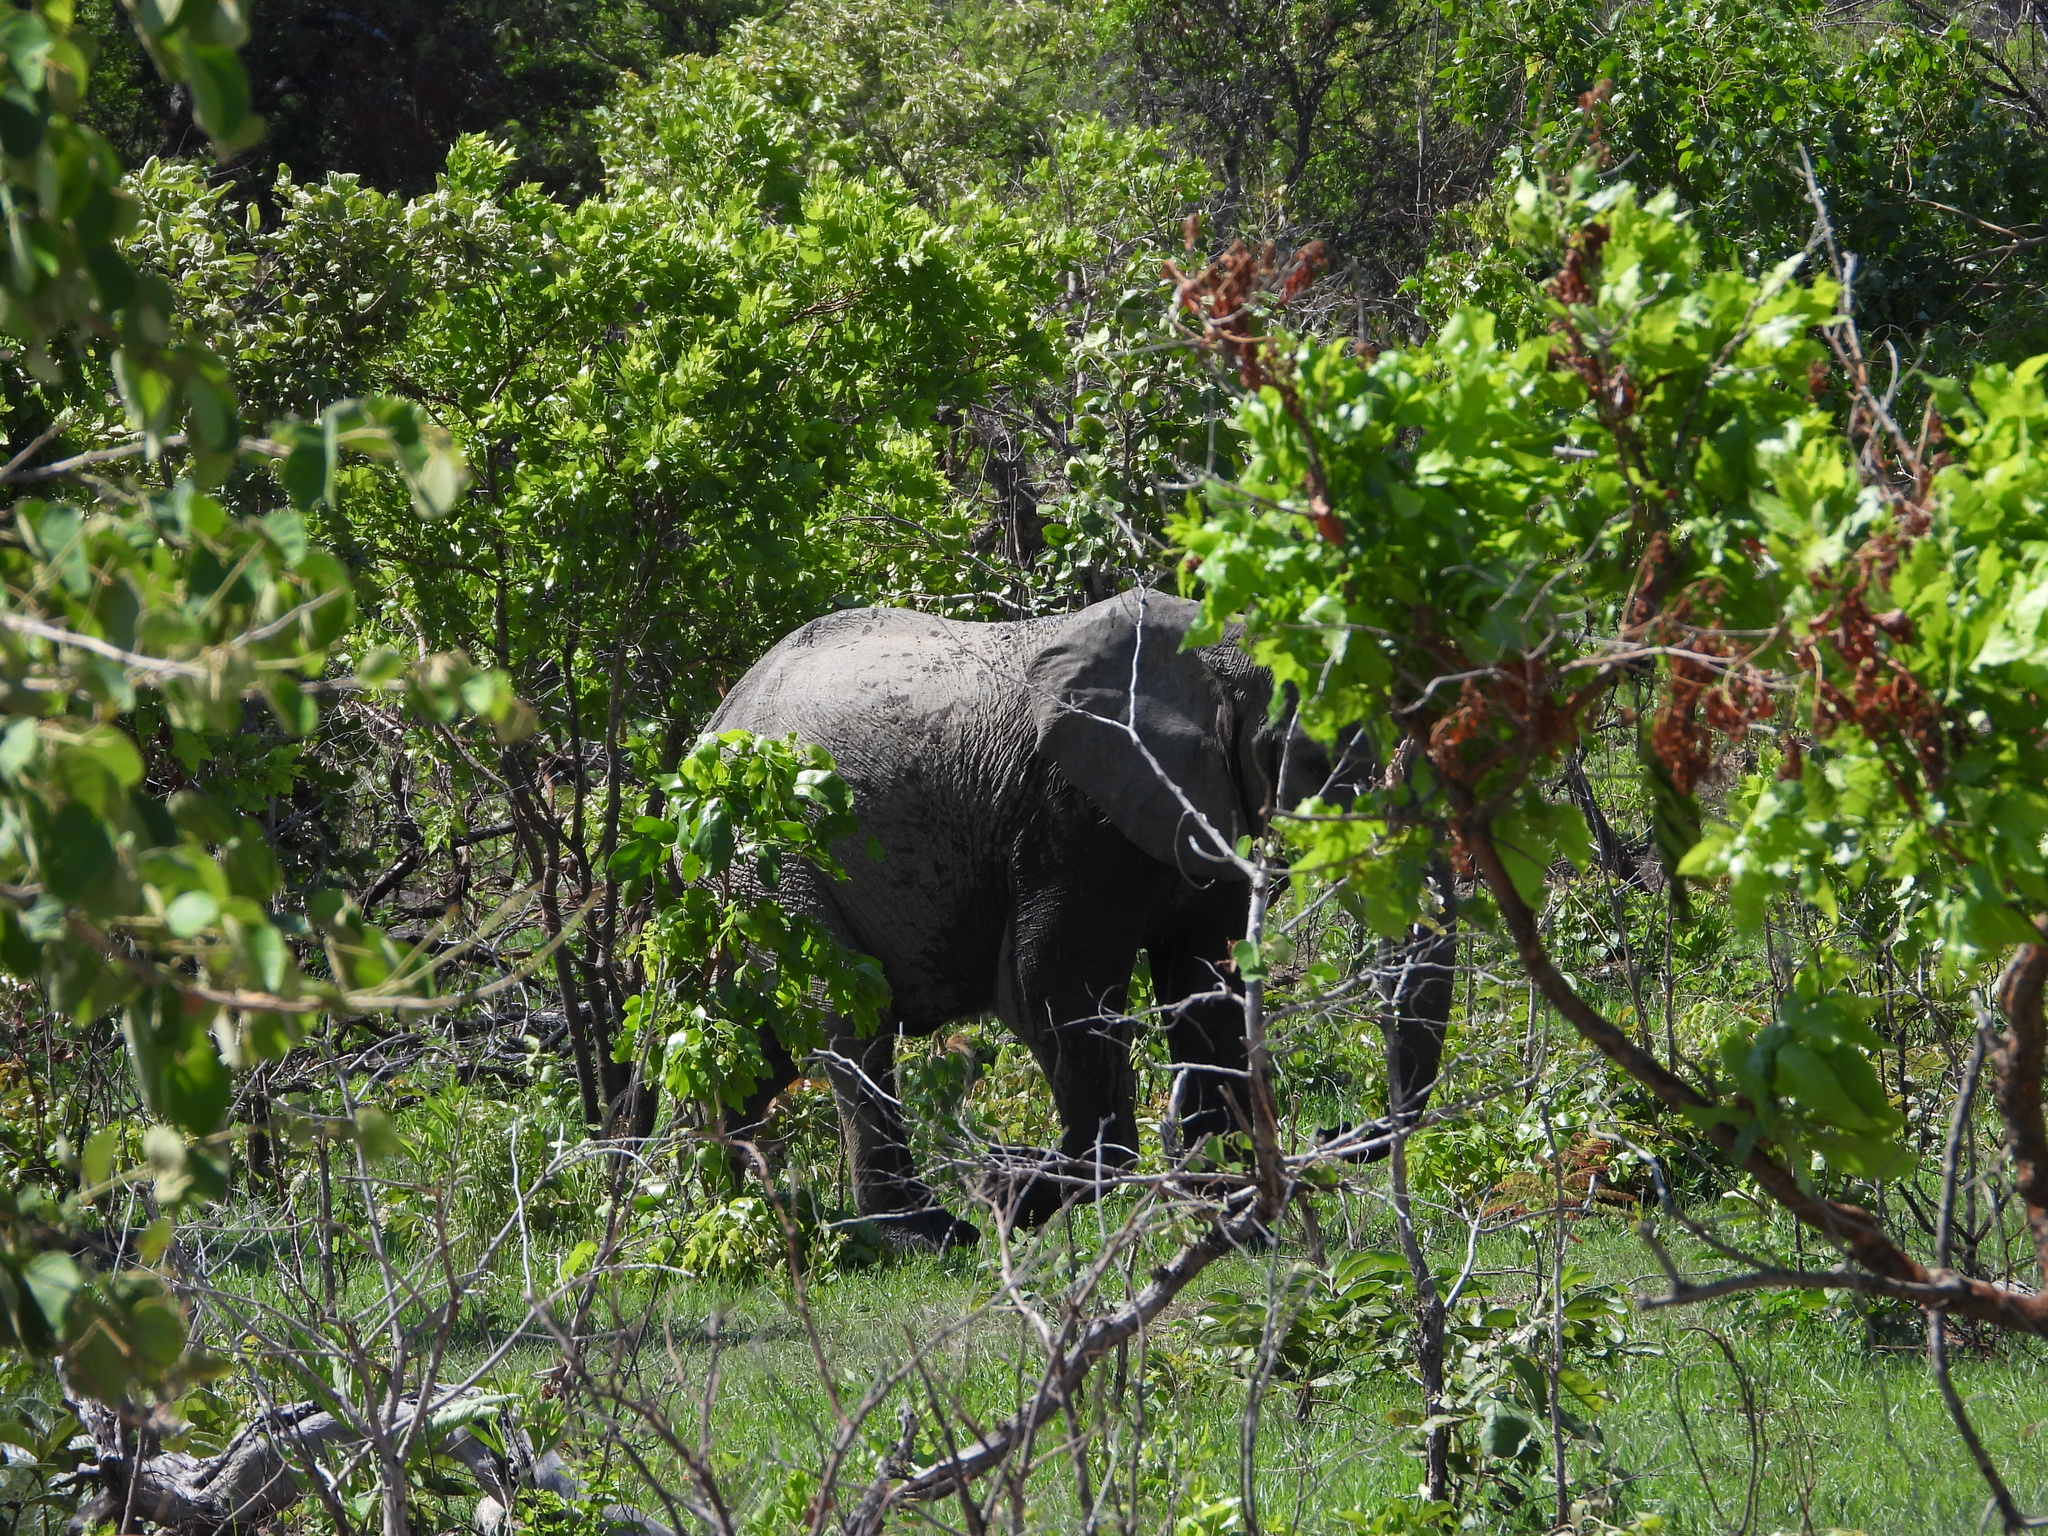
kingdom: Animalia
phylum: Chordata
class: Mammalia
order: Proboscidea
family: Elephantidae
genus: Loxodonta
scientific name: Loxodonta africana
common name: African elephant
